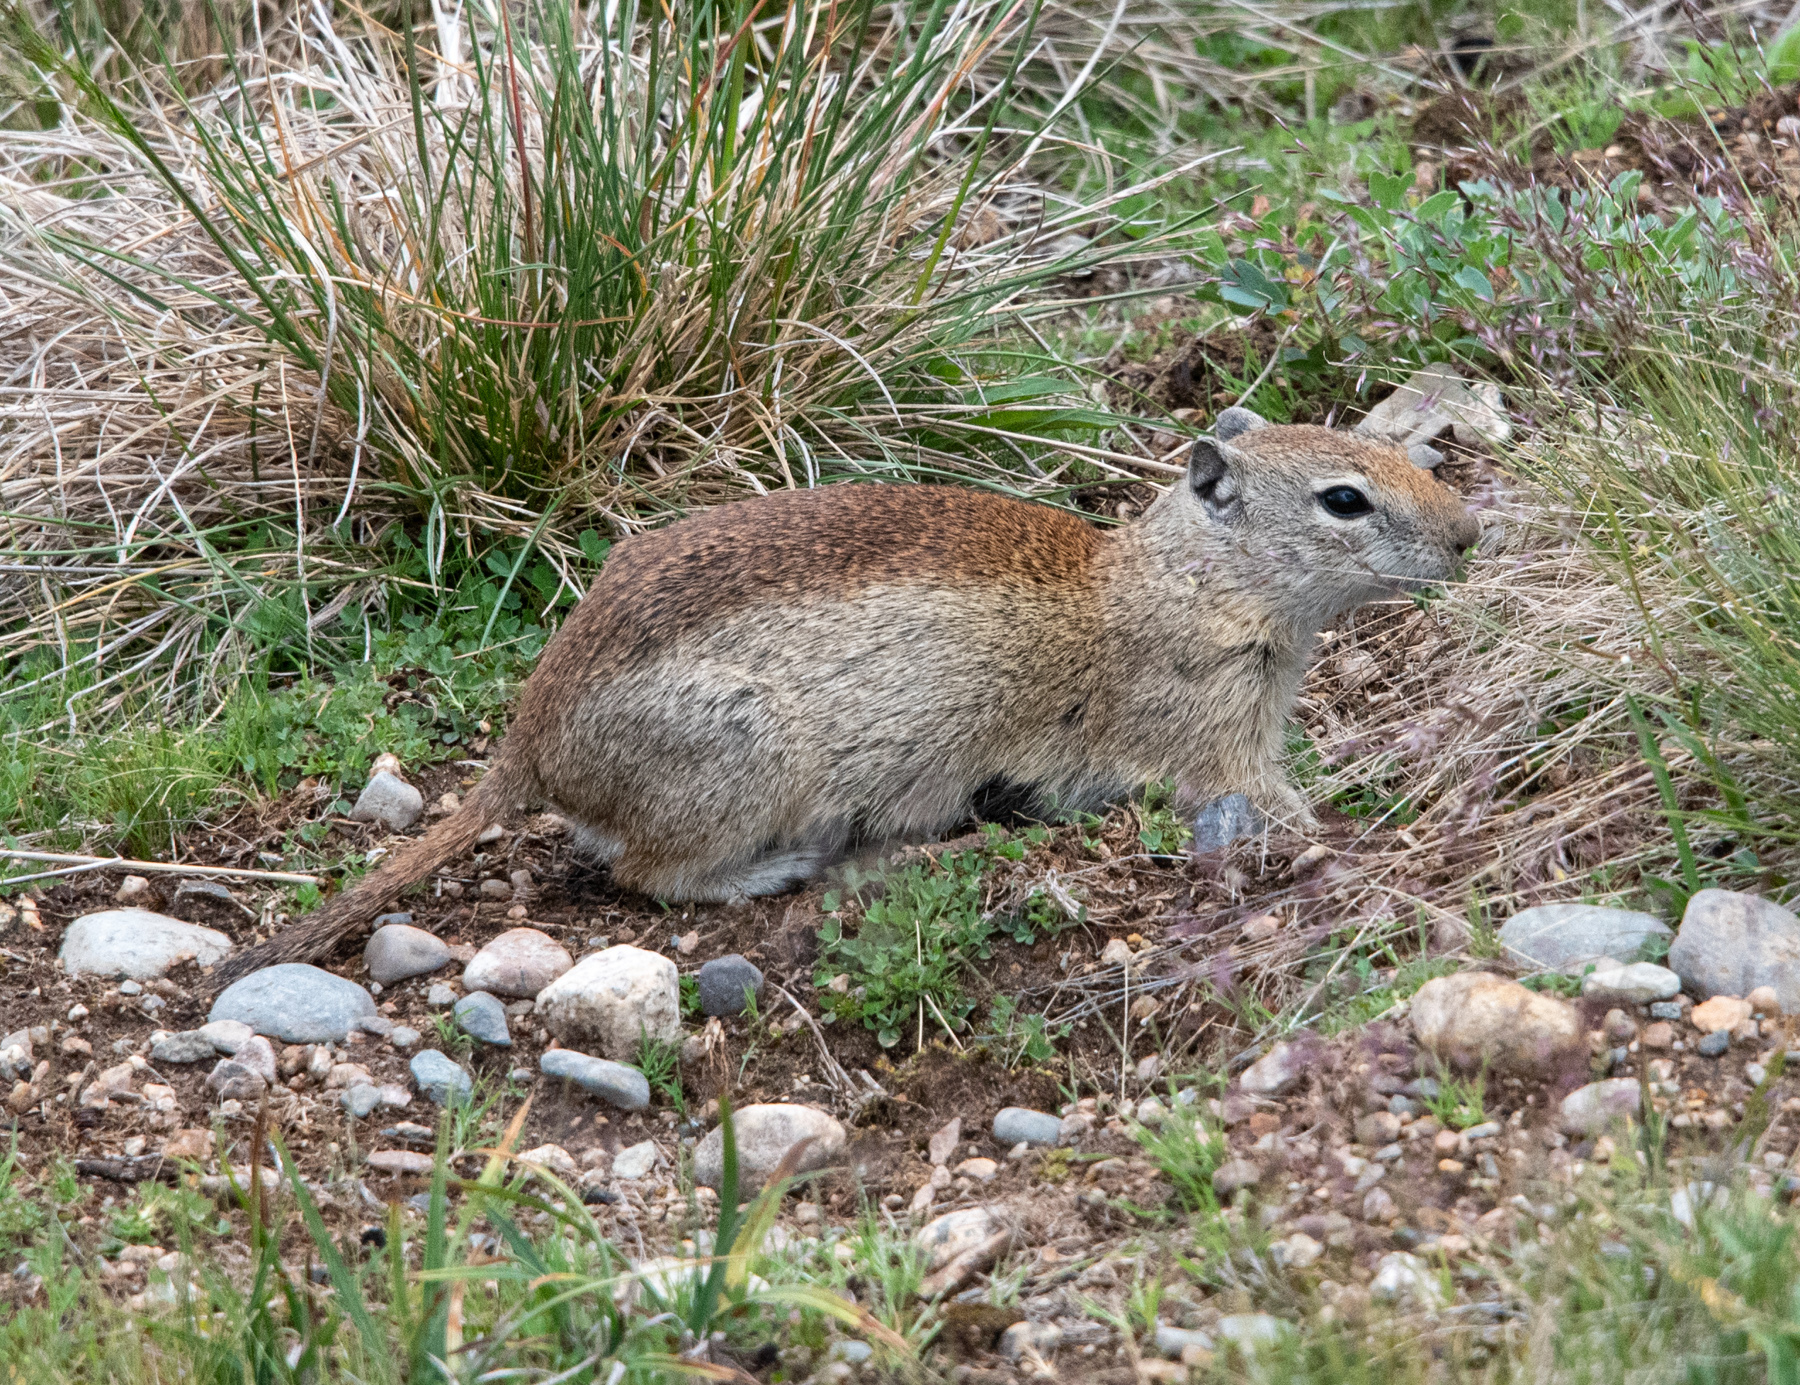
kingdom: Animalia
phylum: Chordata
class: Mammalia
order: Rodentia
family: Sciuridae
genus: Urocitellus
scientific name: Urocitellus beldingi
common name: Belding's ground squirrel
